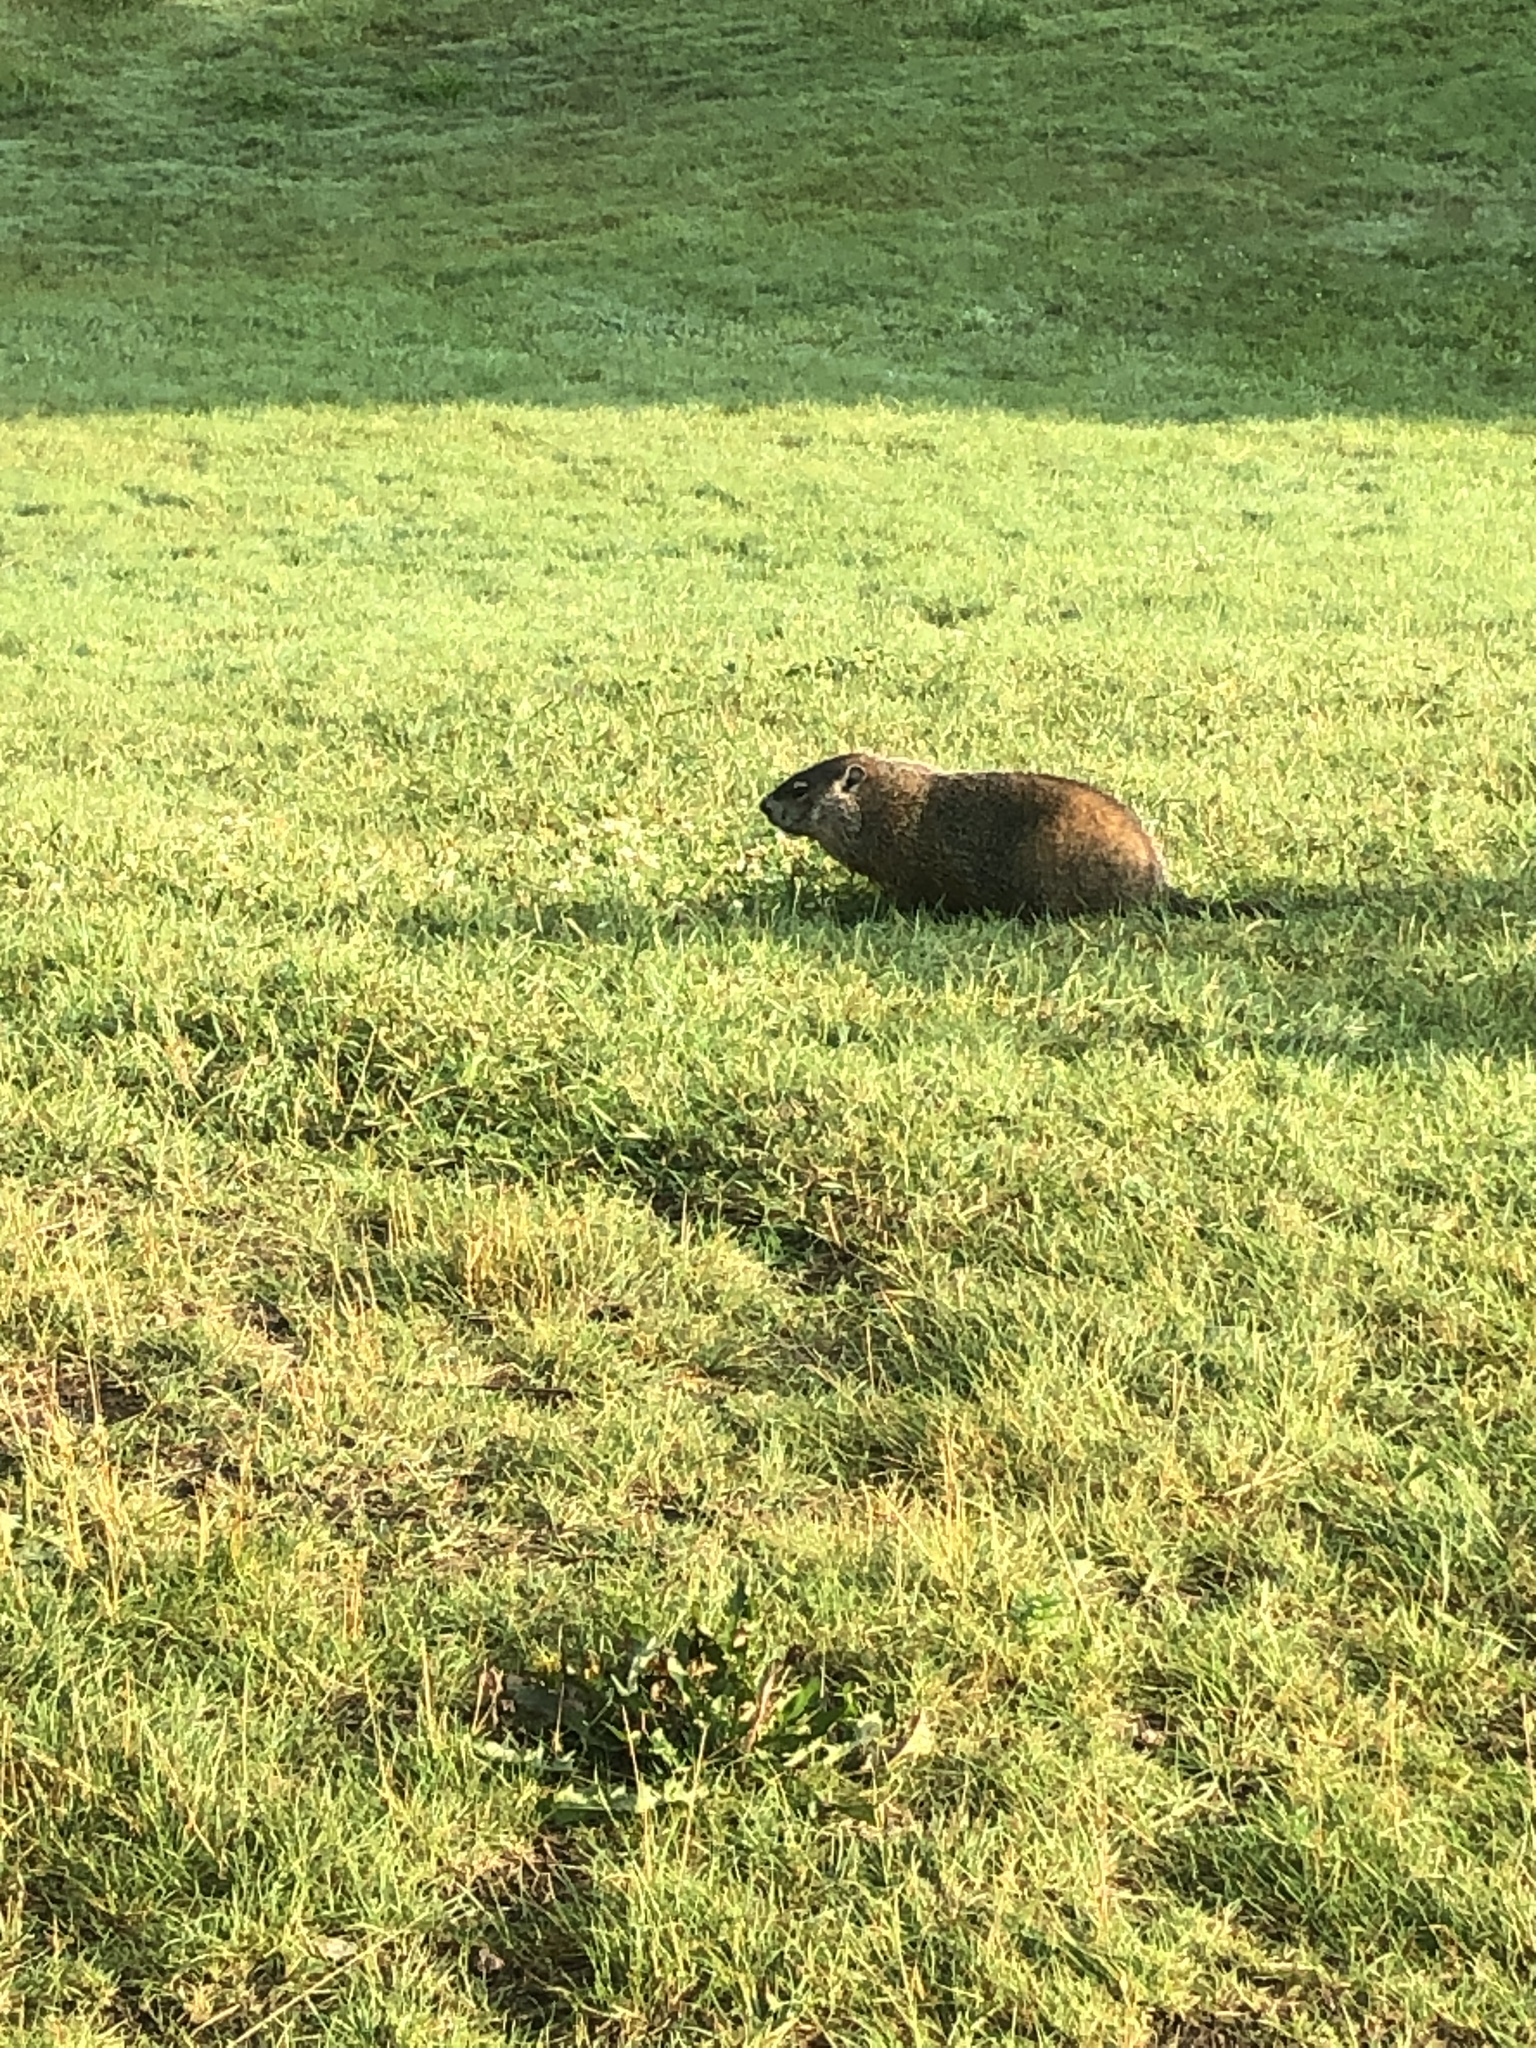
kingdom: Animalia
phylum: Chordata
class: Mammalia
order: Rodentia
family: Sciuridae
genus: Marmota
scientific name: Marmota monax
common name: Groundhog
